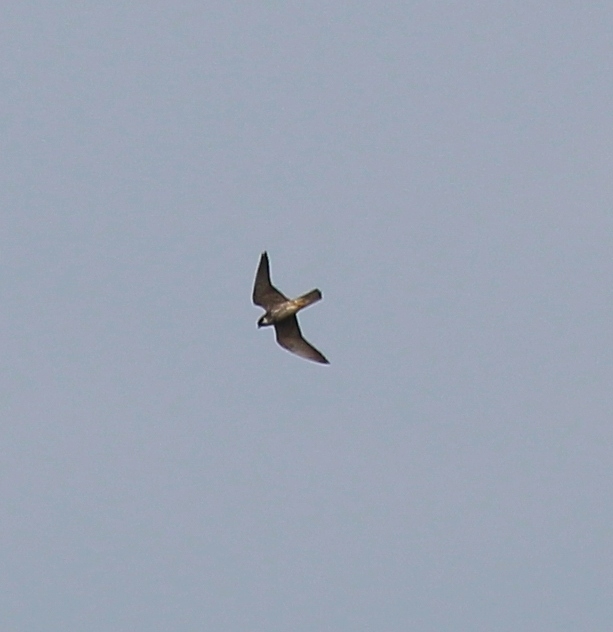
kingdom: Animalia
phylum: Chordata
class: Aves
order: Falconiformes
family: Falconidae
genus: Falco
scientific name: Falco subbuteo
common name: Eurasian hobby
